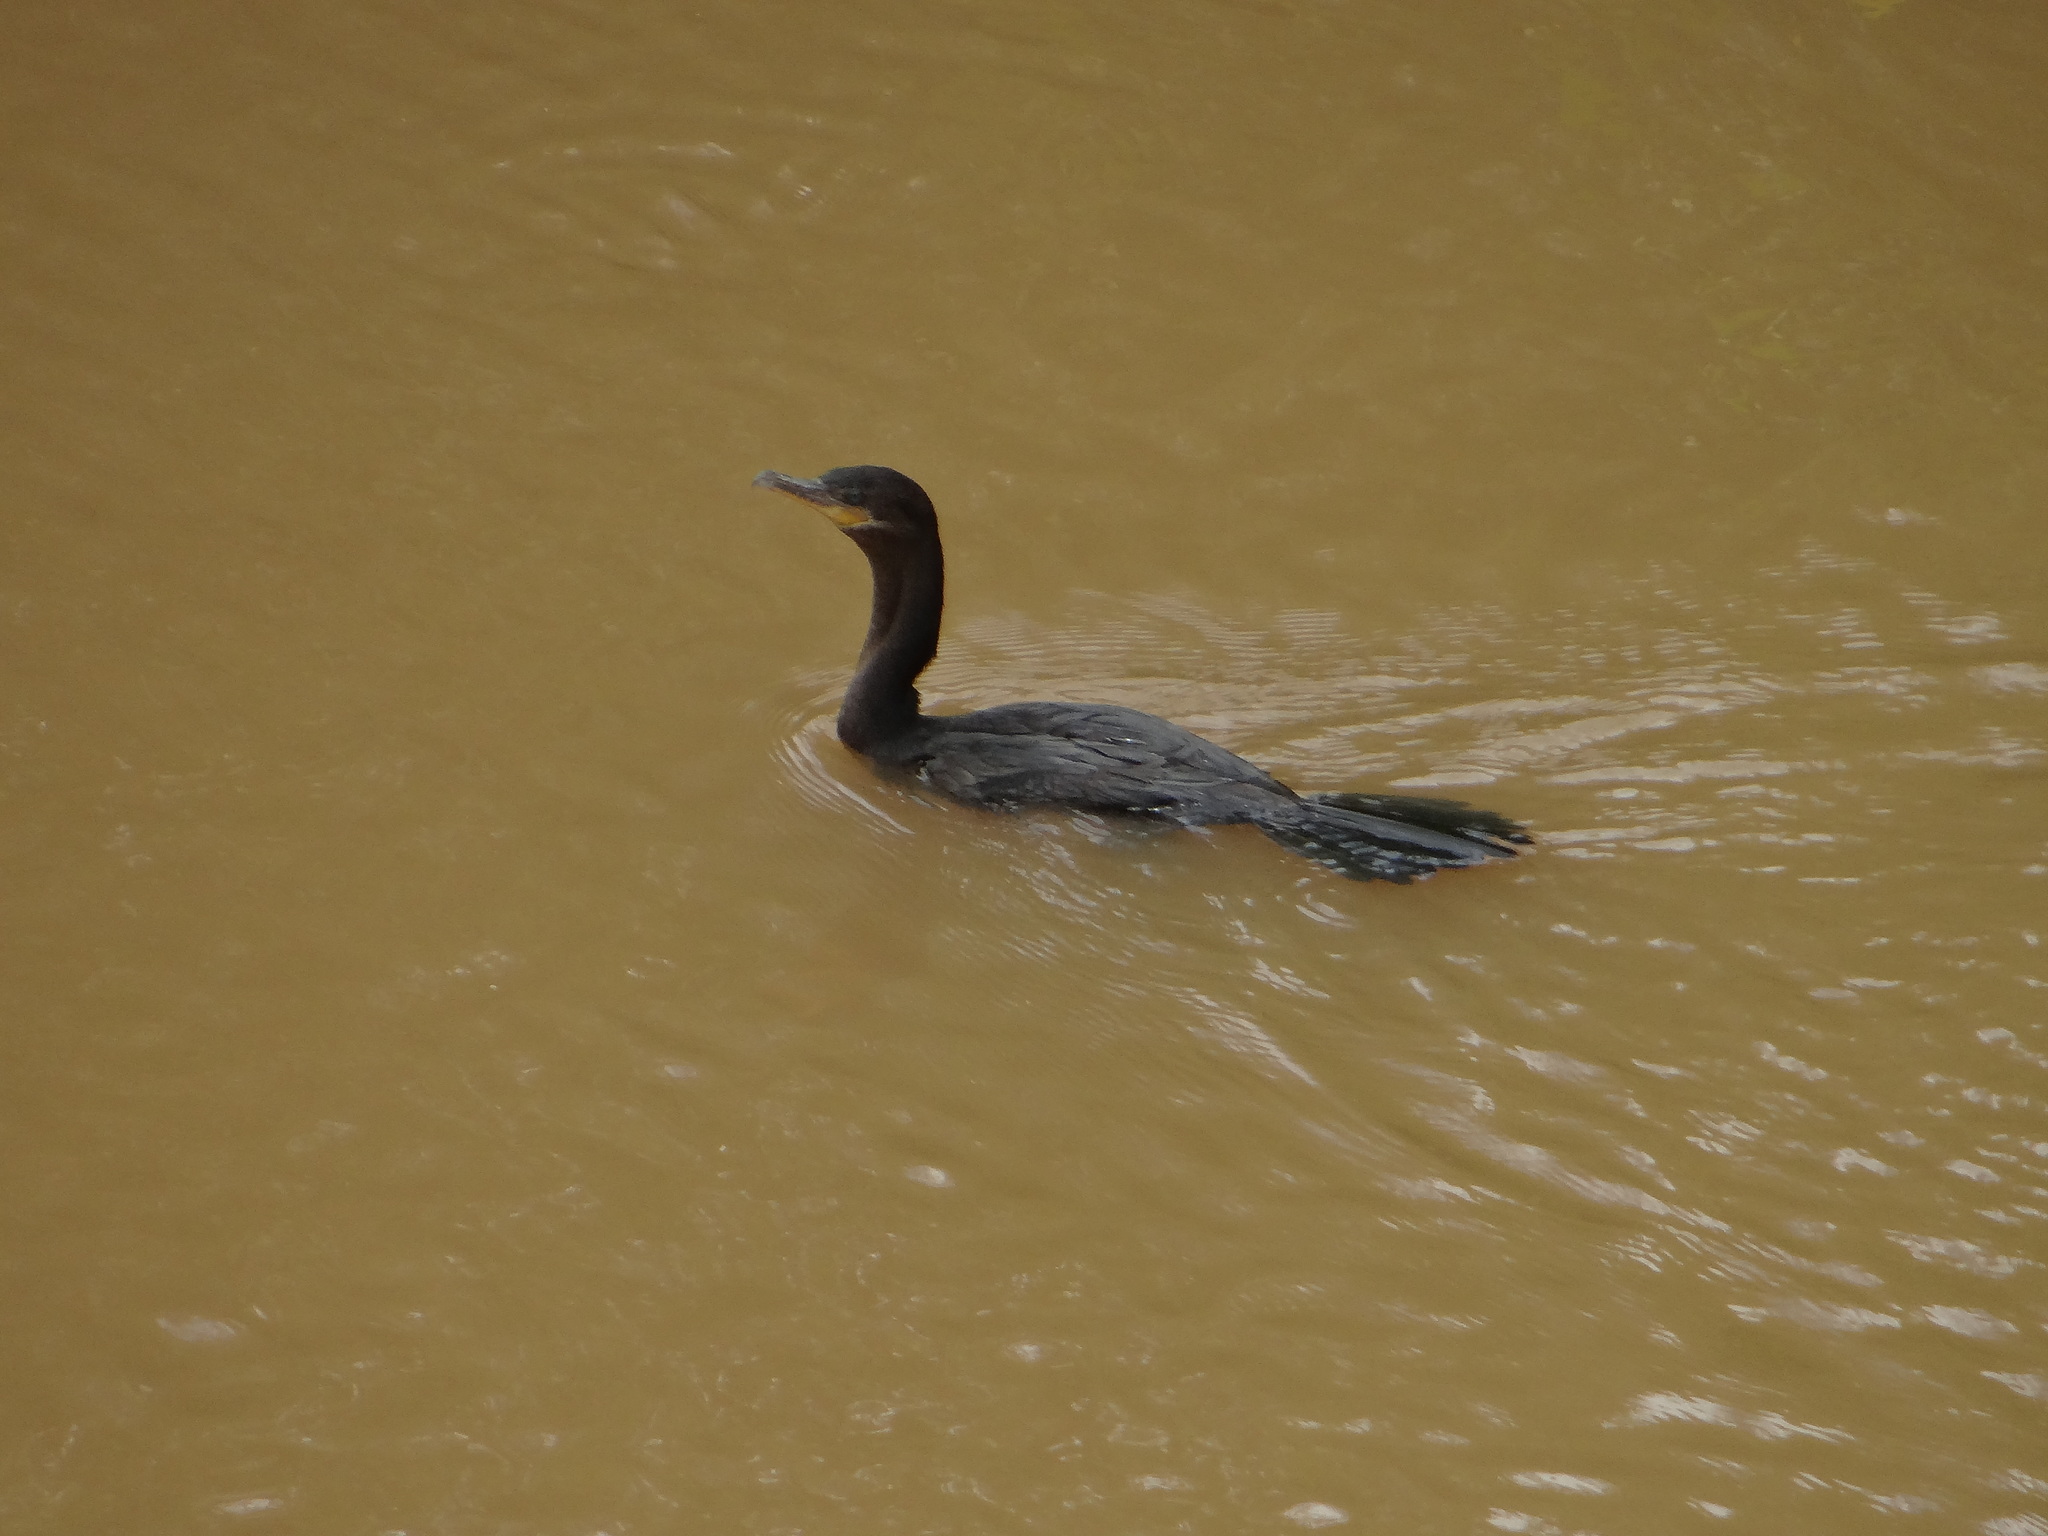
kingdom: Animalia
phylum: Chordata
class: Aves
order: Suliformes
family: Phalacrocoracidae
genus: Phalacrocorax
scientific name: Phalacrocorax brasilianus
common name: Neotropic cormorant
